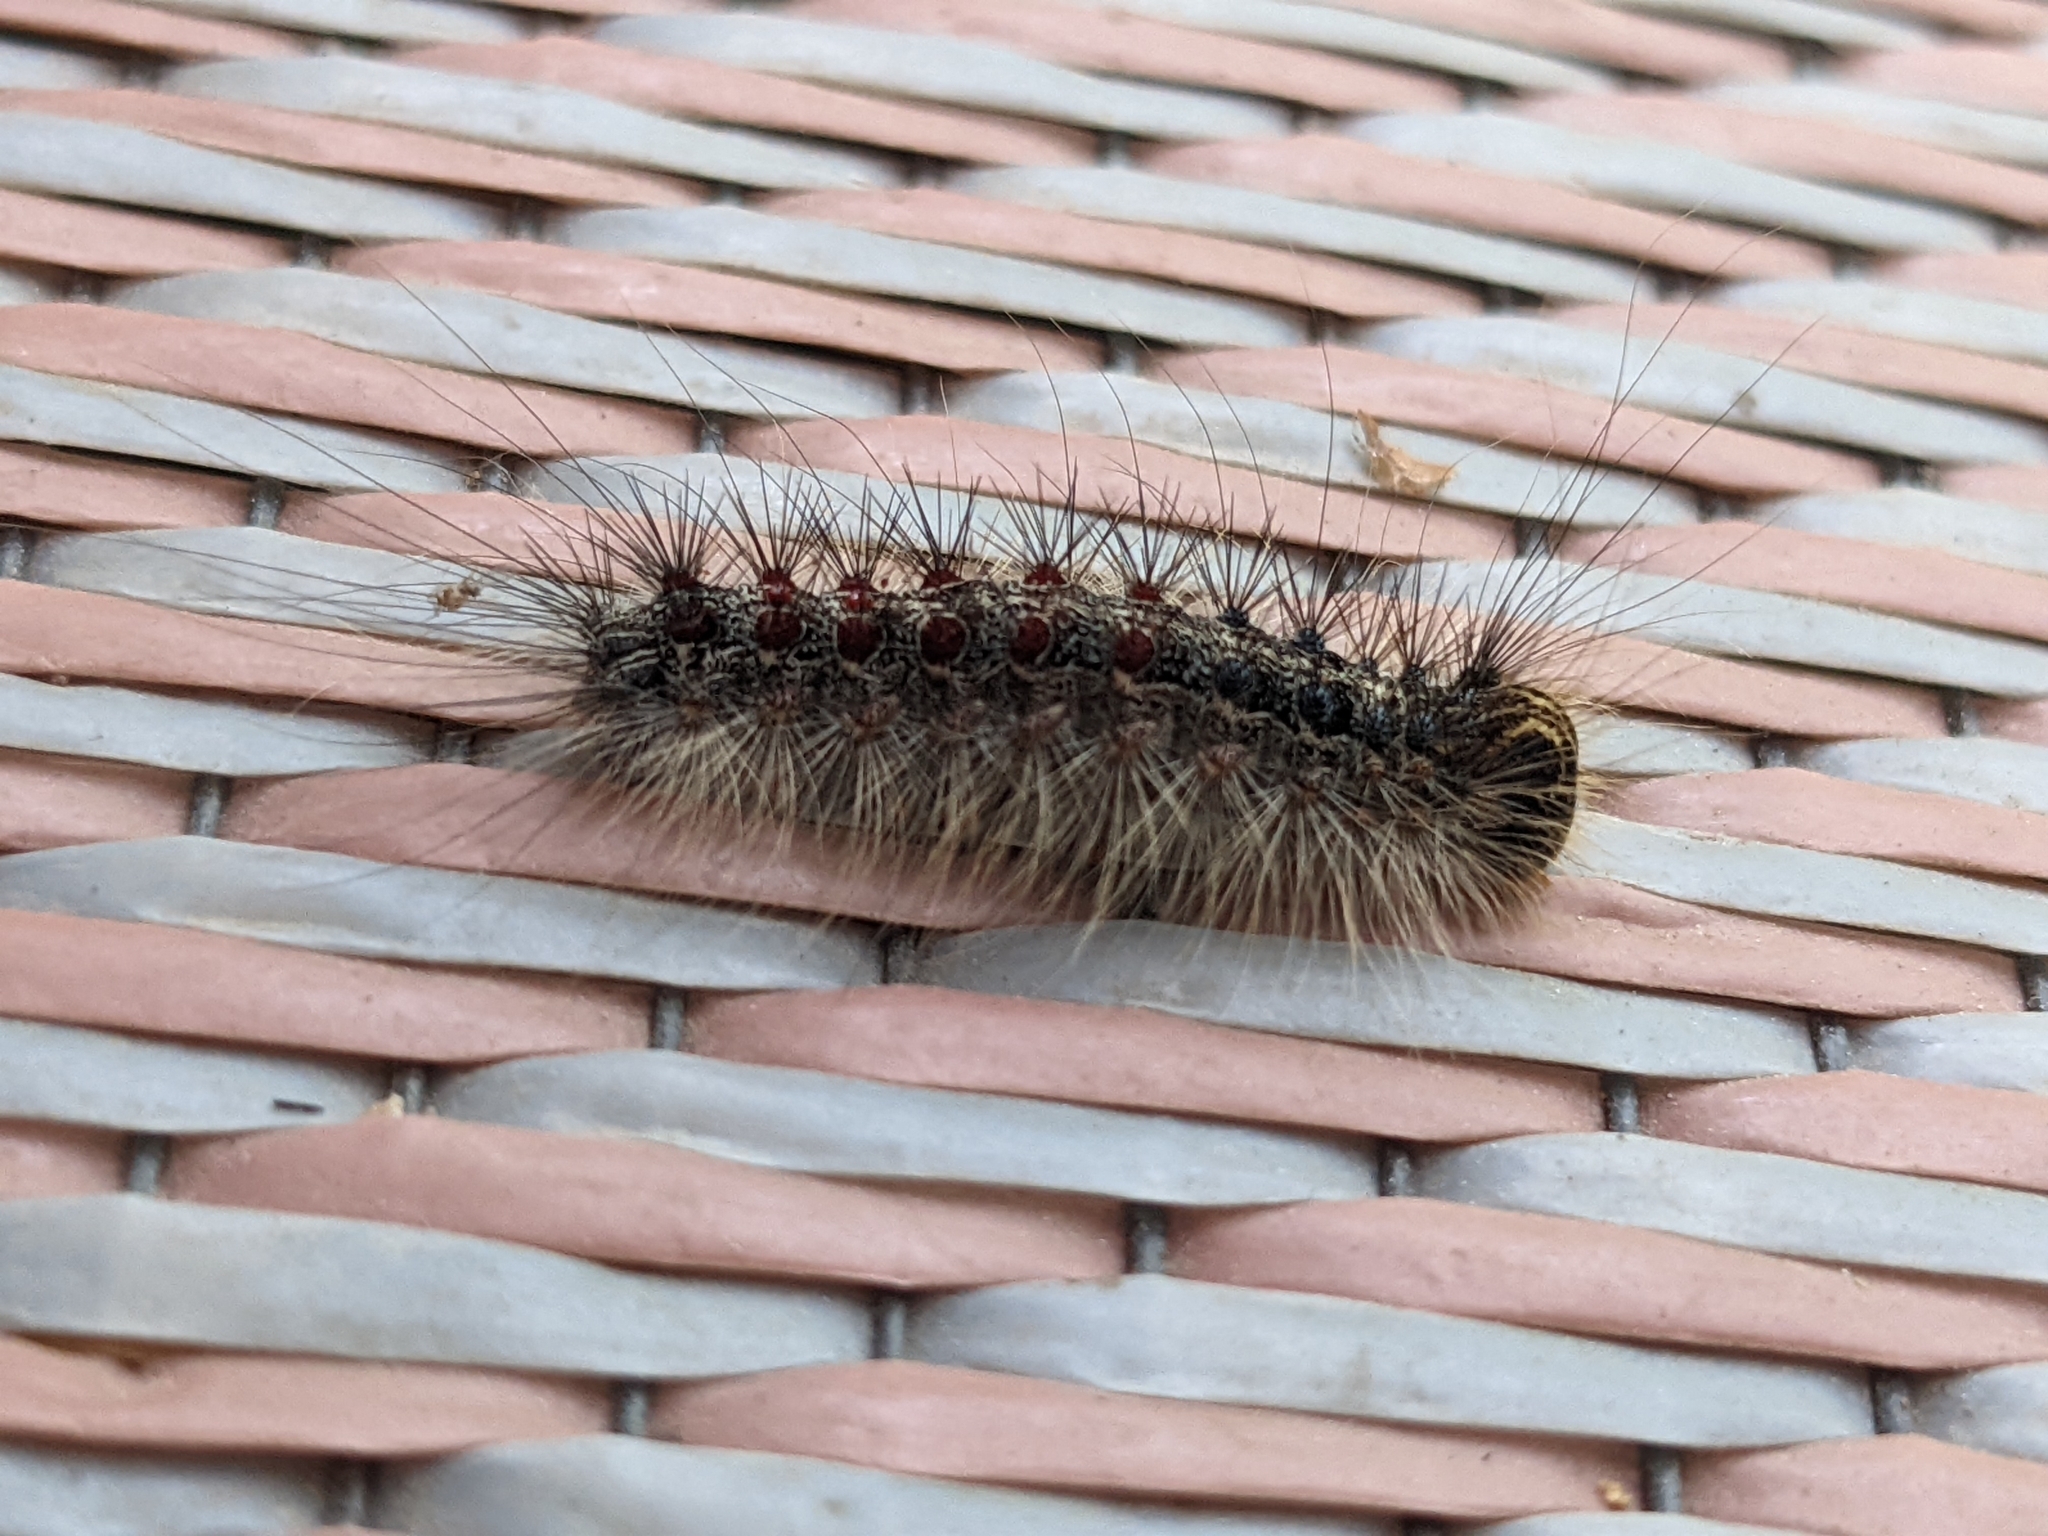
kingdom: Animalia
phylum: Arthropoda
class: Insecta
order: Lepidoptera
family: Erebidae
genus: Lymantria
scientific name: Lymantria dispar
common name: Gypsy moth
